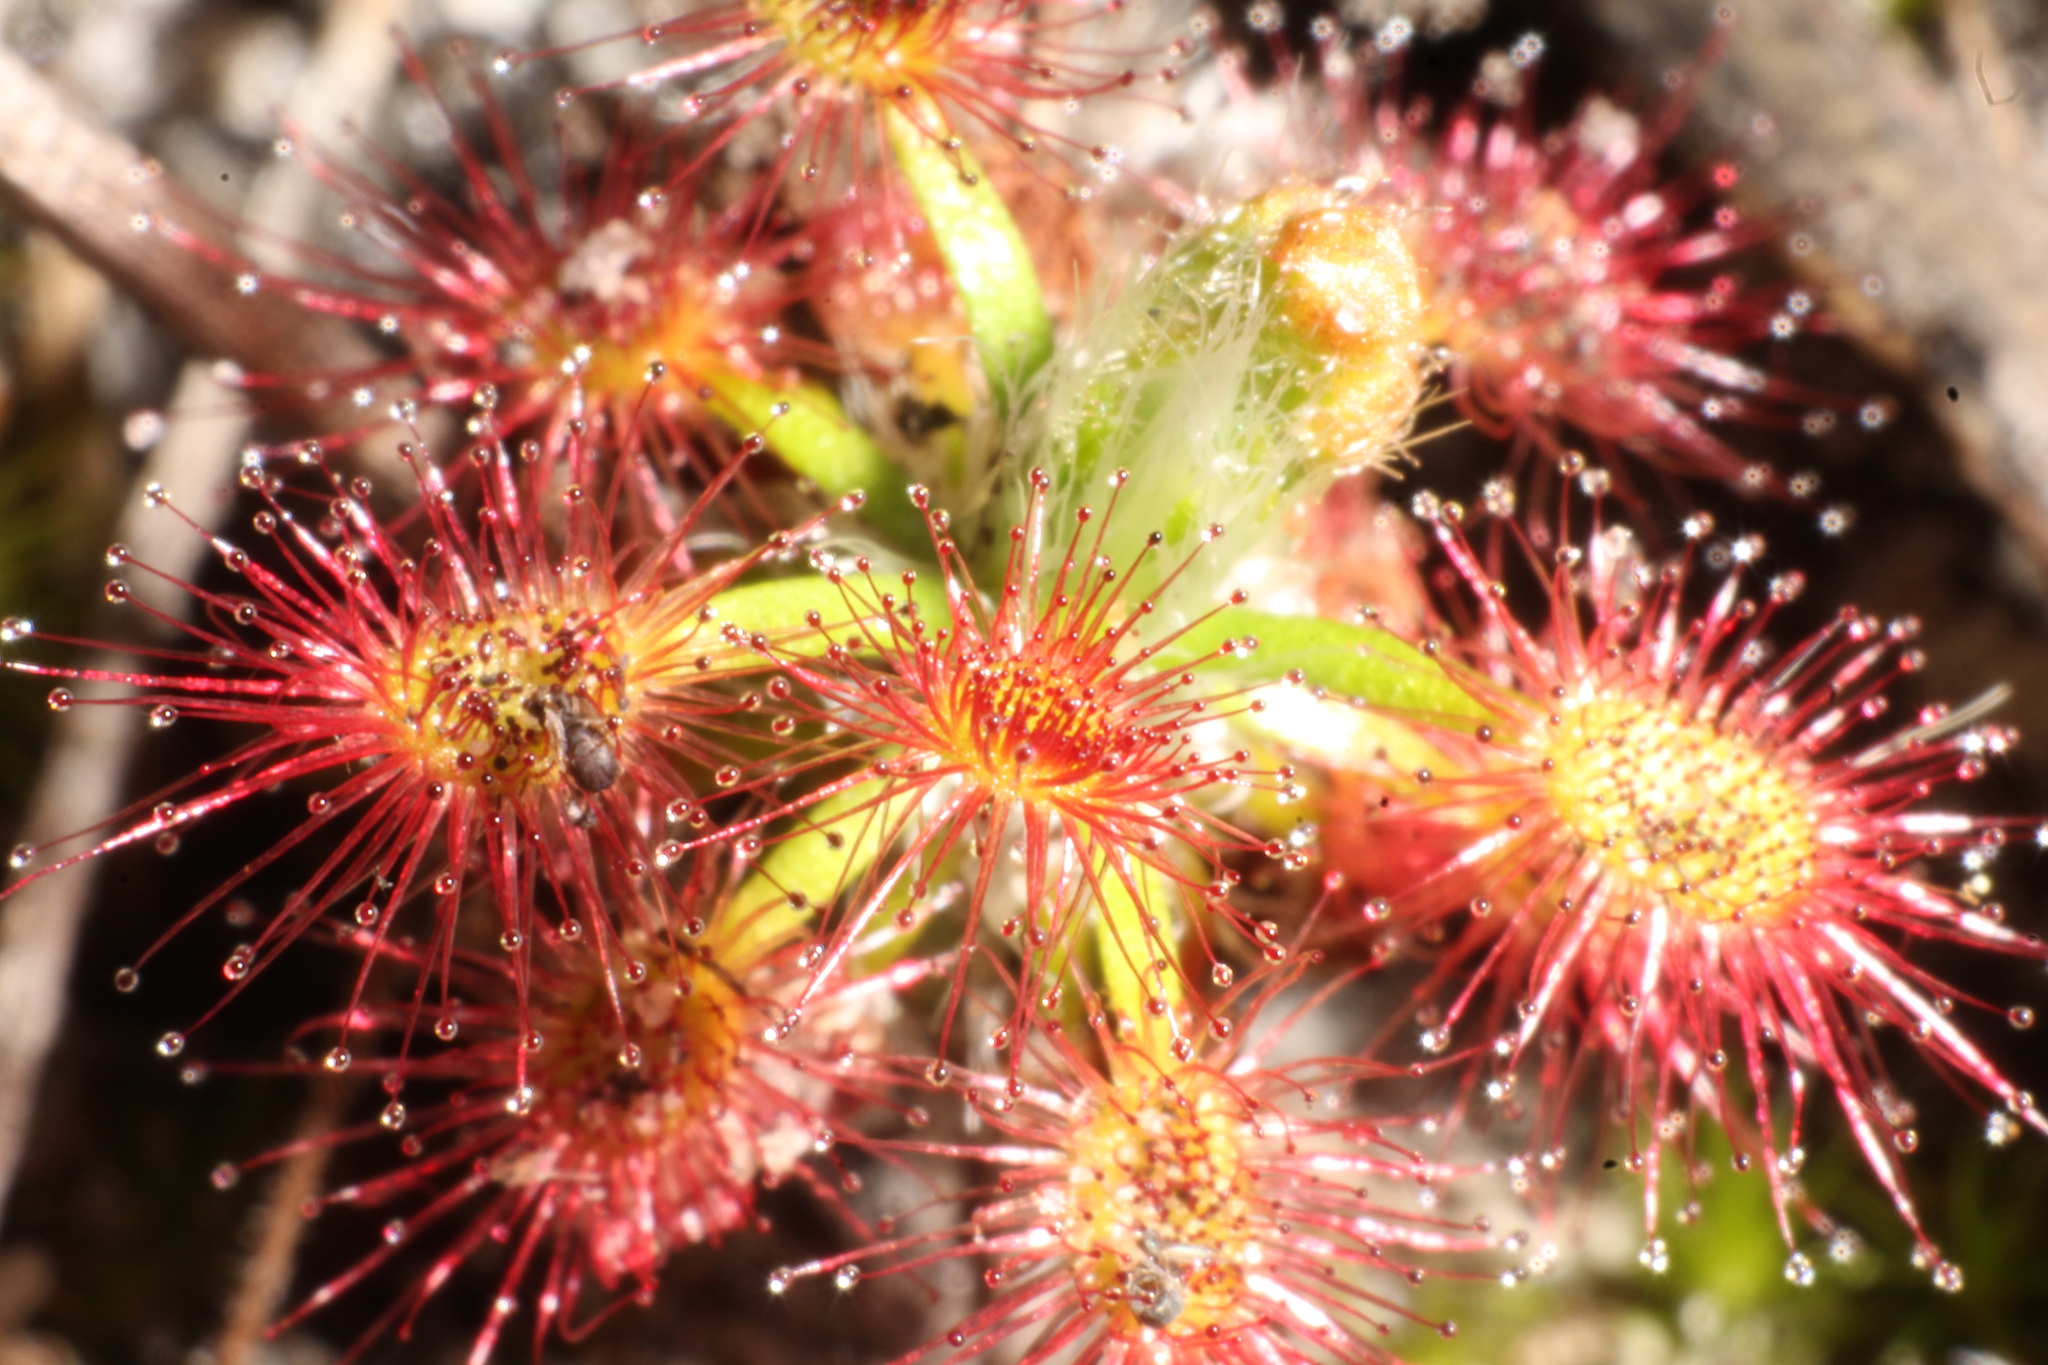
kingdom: Plantae
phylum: Tracheophyta
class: Magnoliopsida
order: Caryophyllales
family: Droseraceae
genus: Drosera
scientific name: Drosera paleacea
